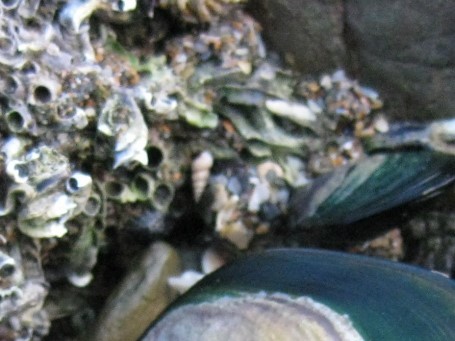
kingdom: Animalia
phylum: Mollusca
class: Gastropoda
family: Epitoniidae
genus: Epitonium
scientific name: Epitonium jukesianum
